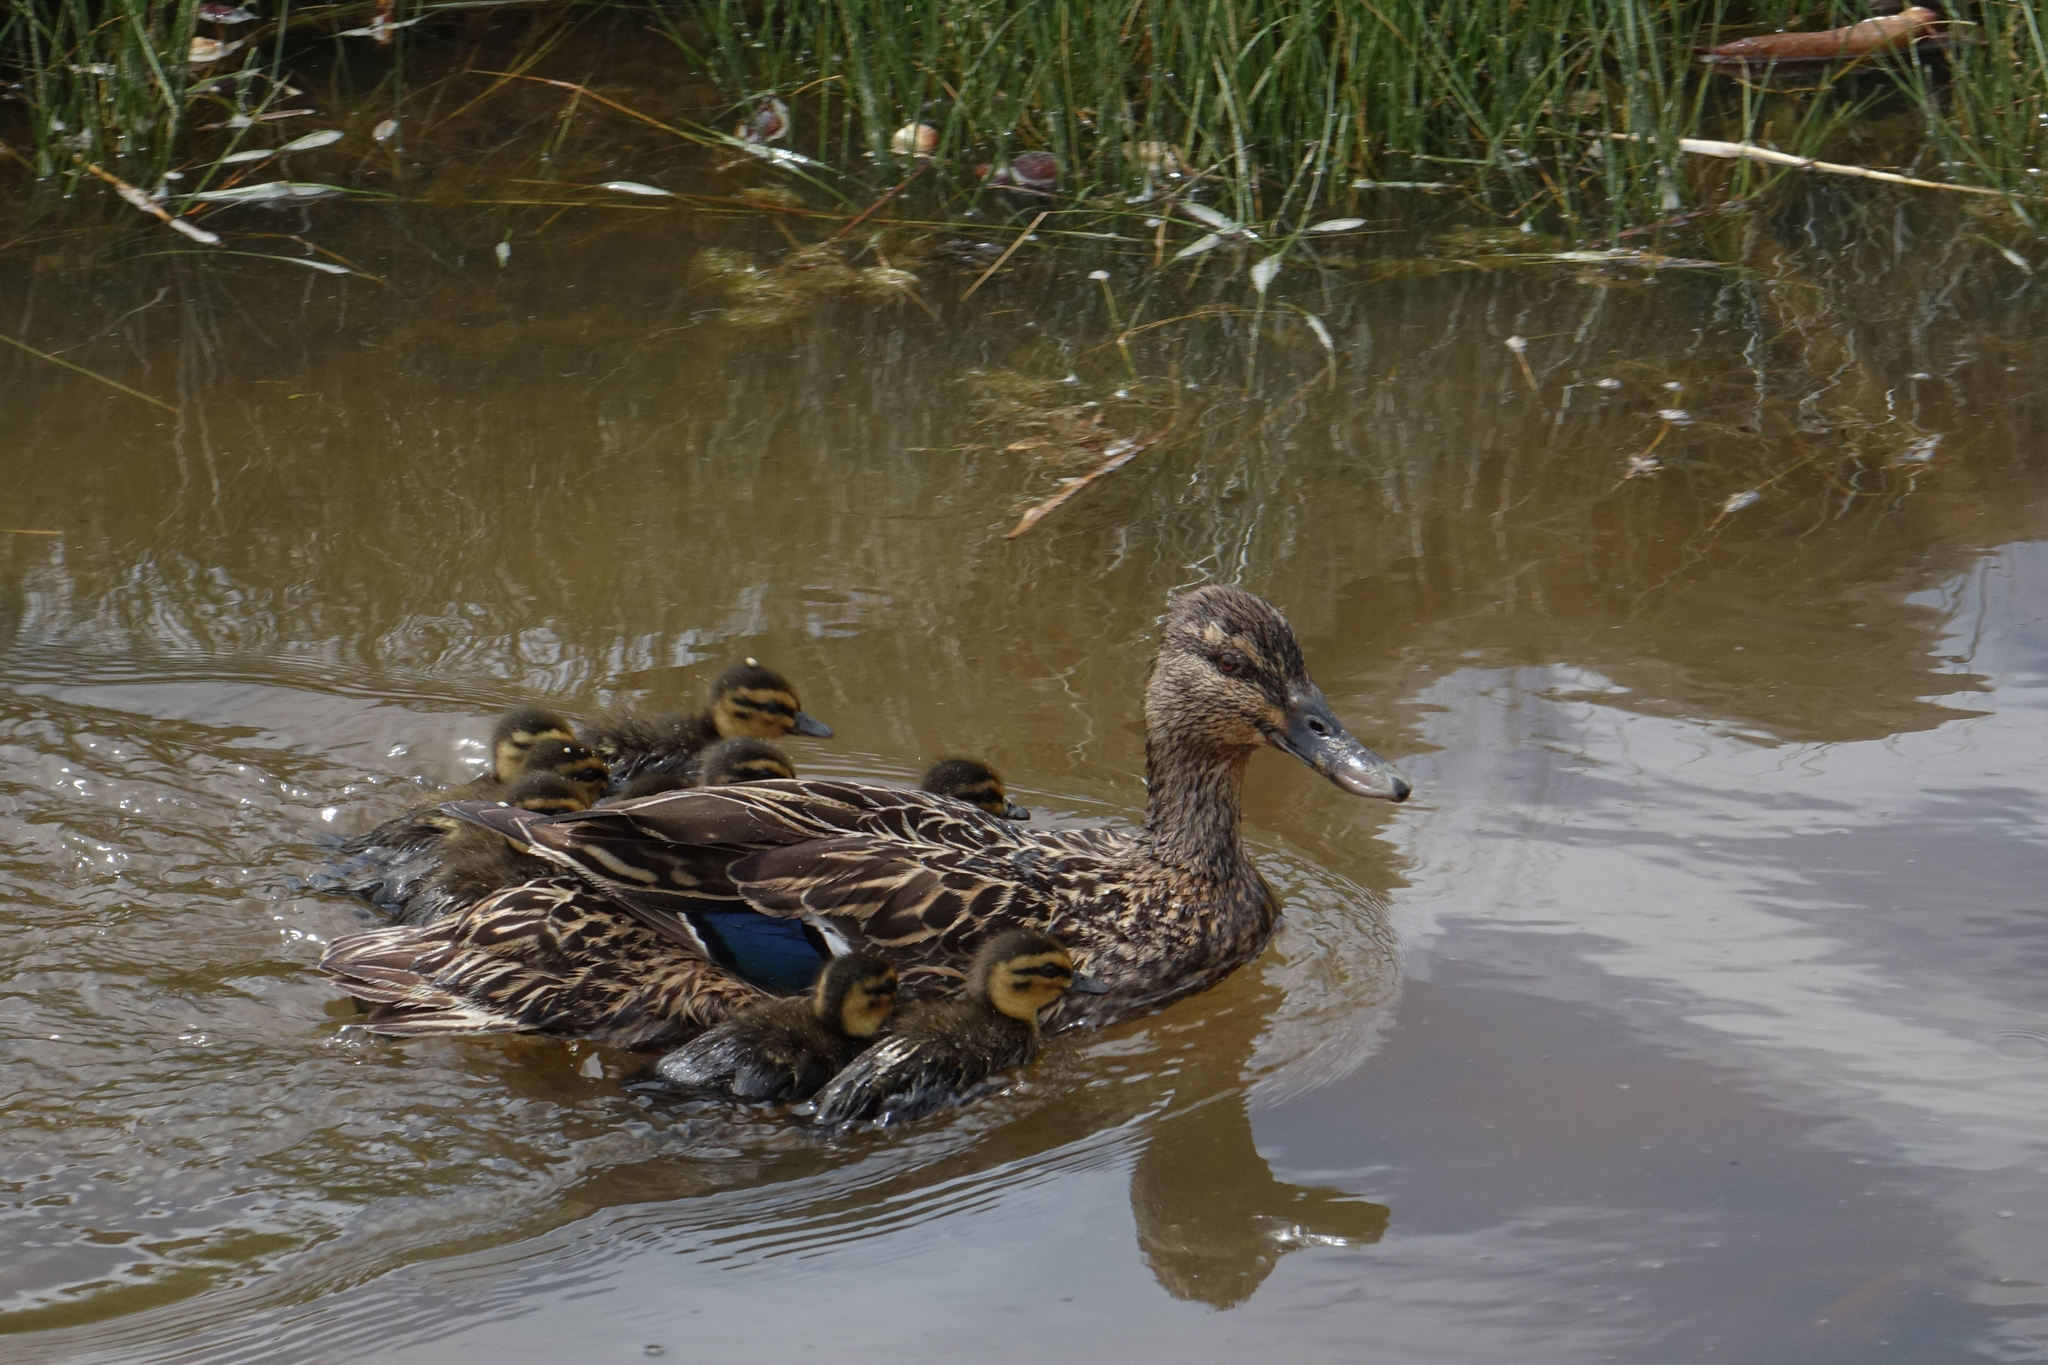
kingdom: Animalia
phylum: Chordata
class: Aves
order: Anseriformes
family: Anatidae
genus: Anas
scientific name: Anas platyrhynchos
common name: Mallard
